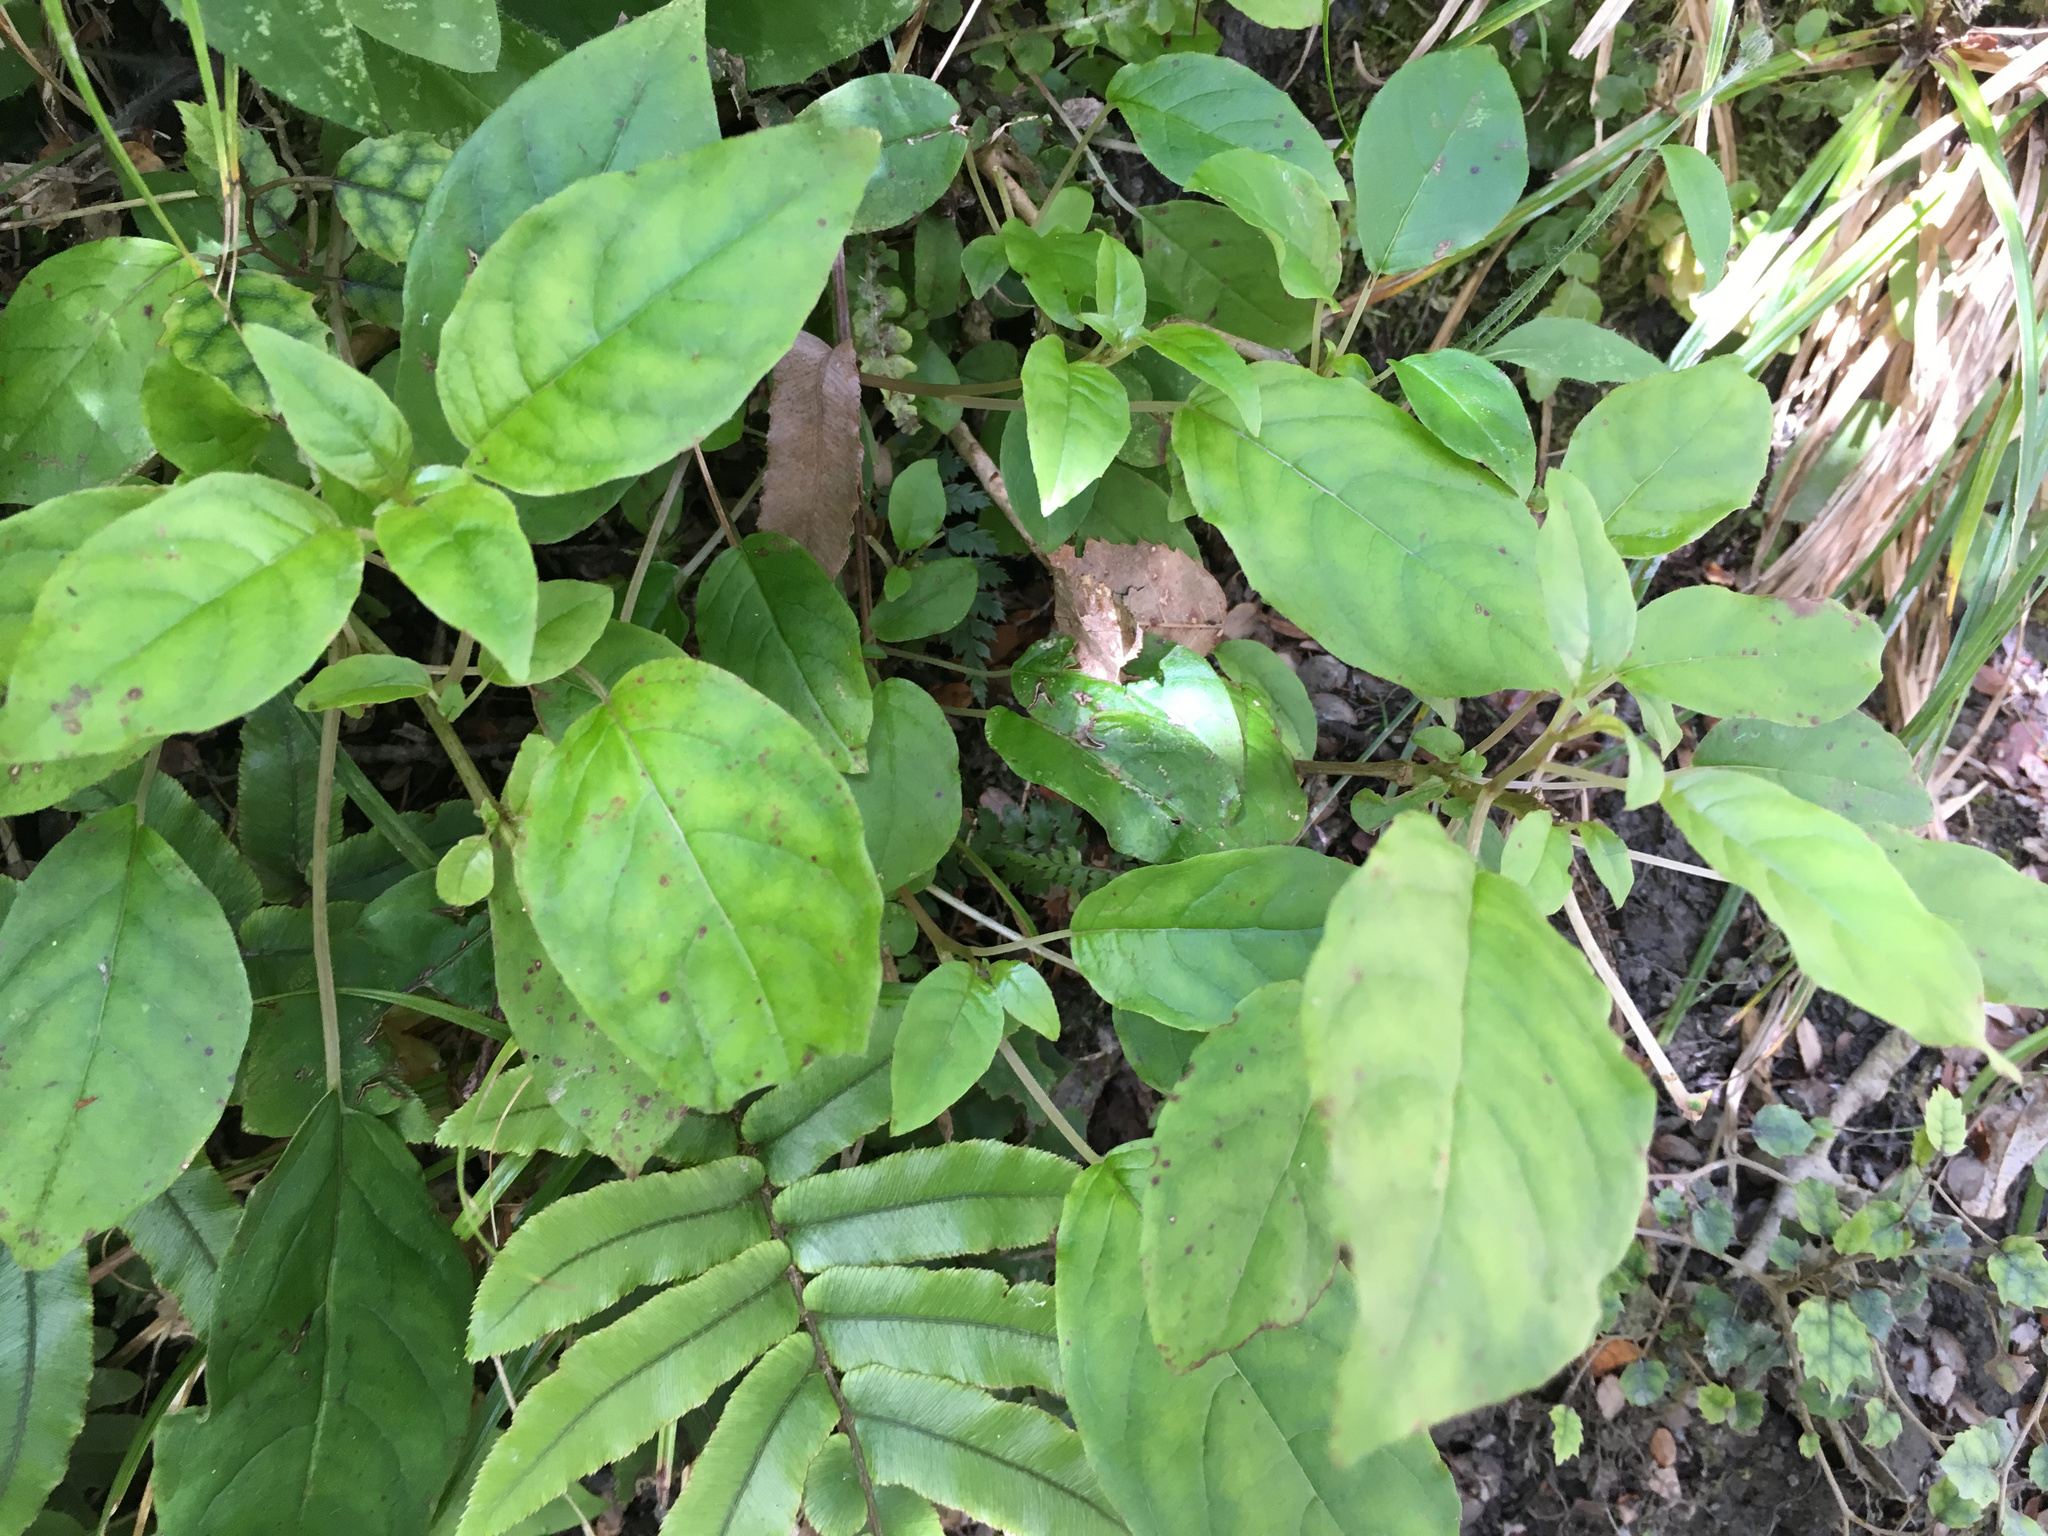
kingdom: Plantae
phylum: Tracheophyta
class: Magnoliopsida
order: Myrtales
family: Onagraceae
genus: Fuchsia
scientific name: Fuchsia excorticata
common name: Tree fuchsia
